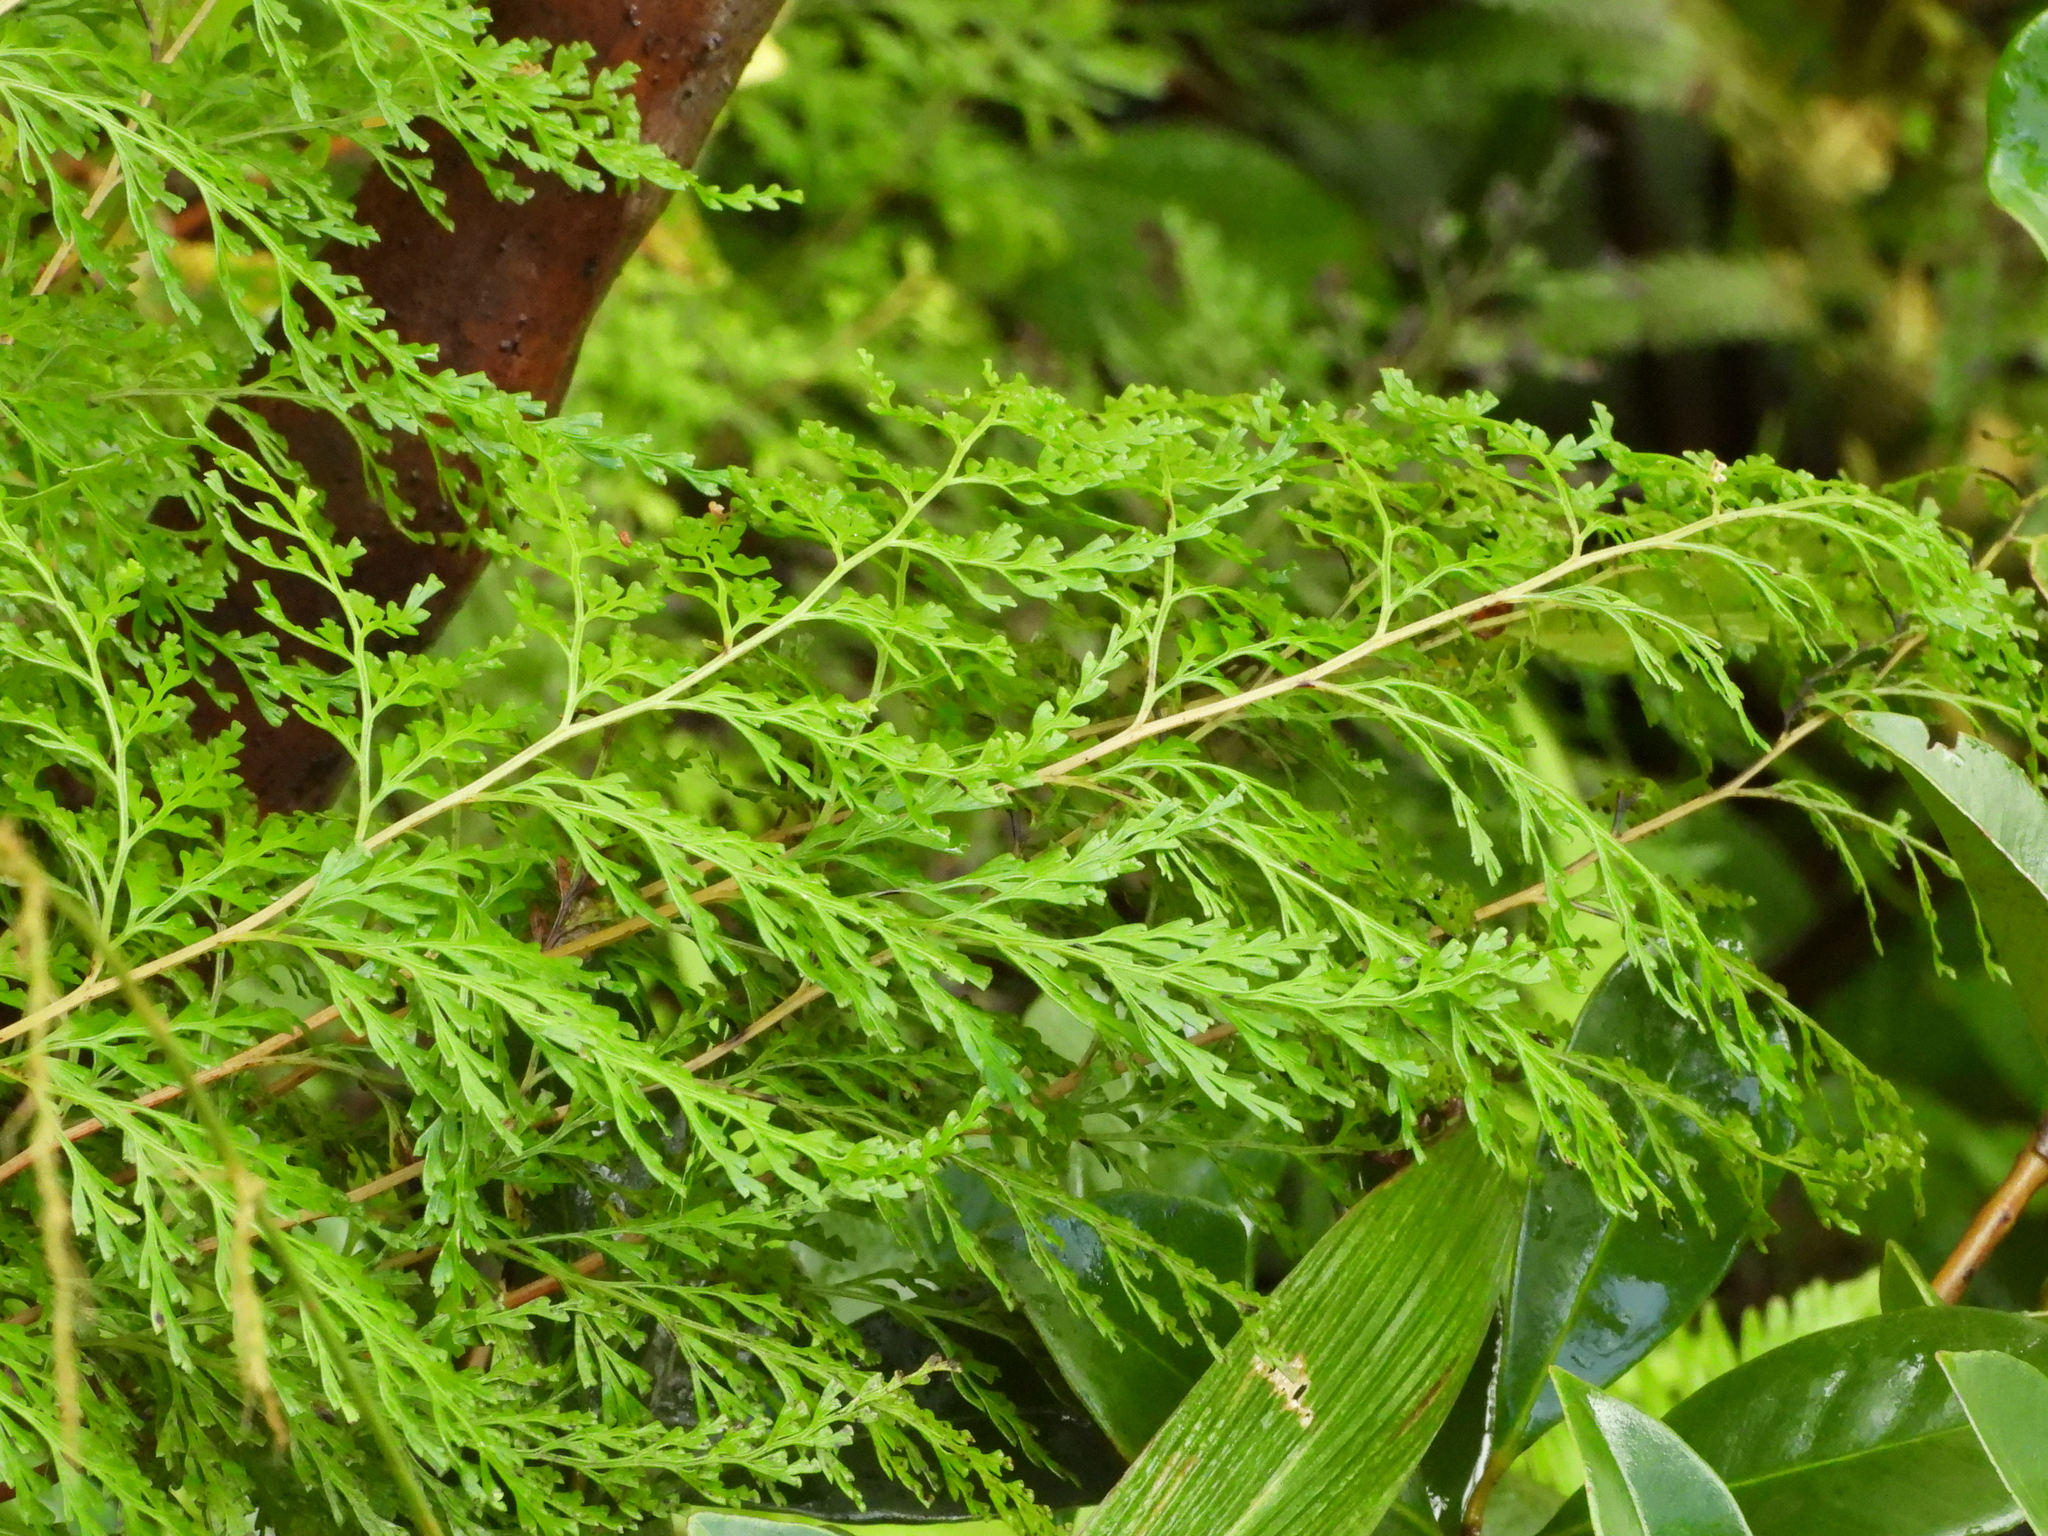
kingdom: Plantae
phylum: Tracheophyta
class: Polypodiopsida
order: Polypodiales
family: Lindsaeaceae
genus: Odontosoria
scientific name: Odontosoria chinensis
